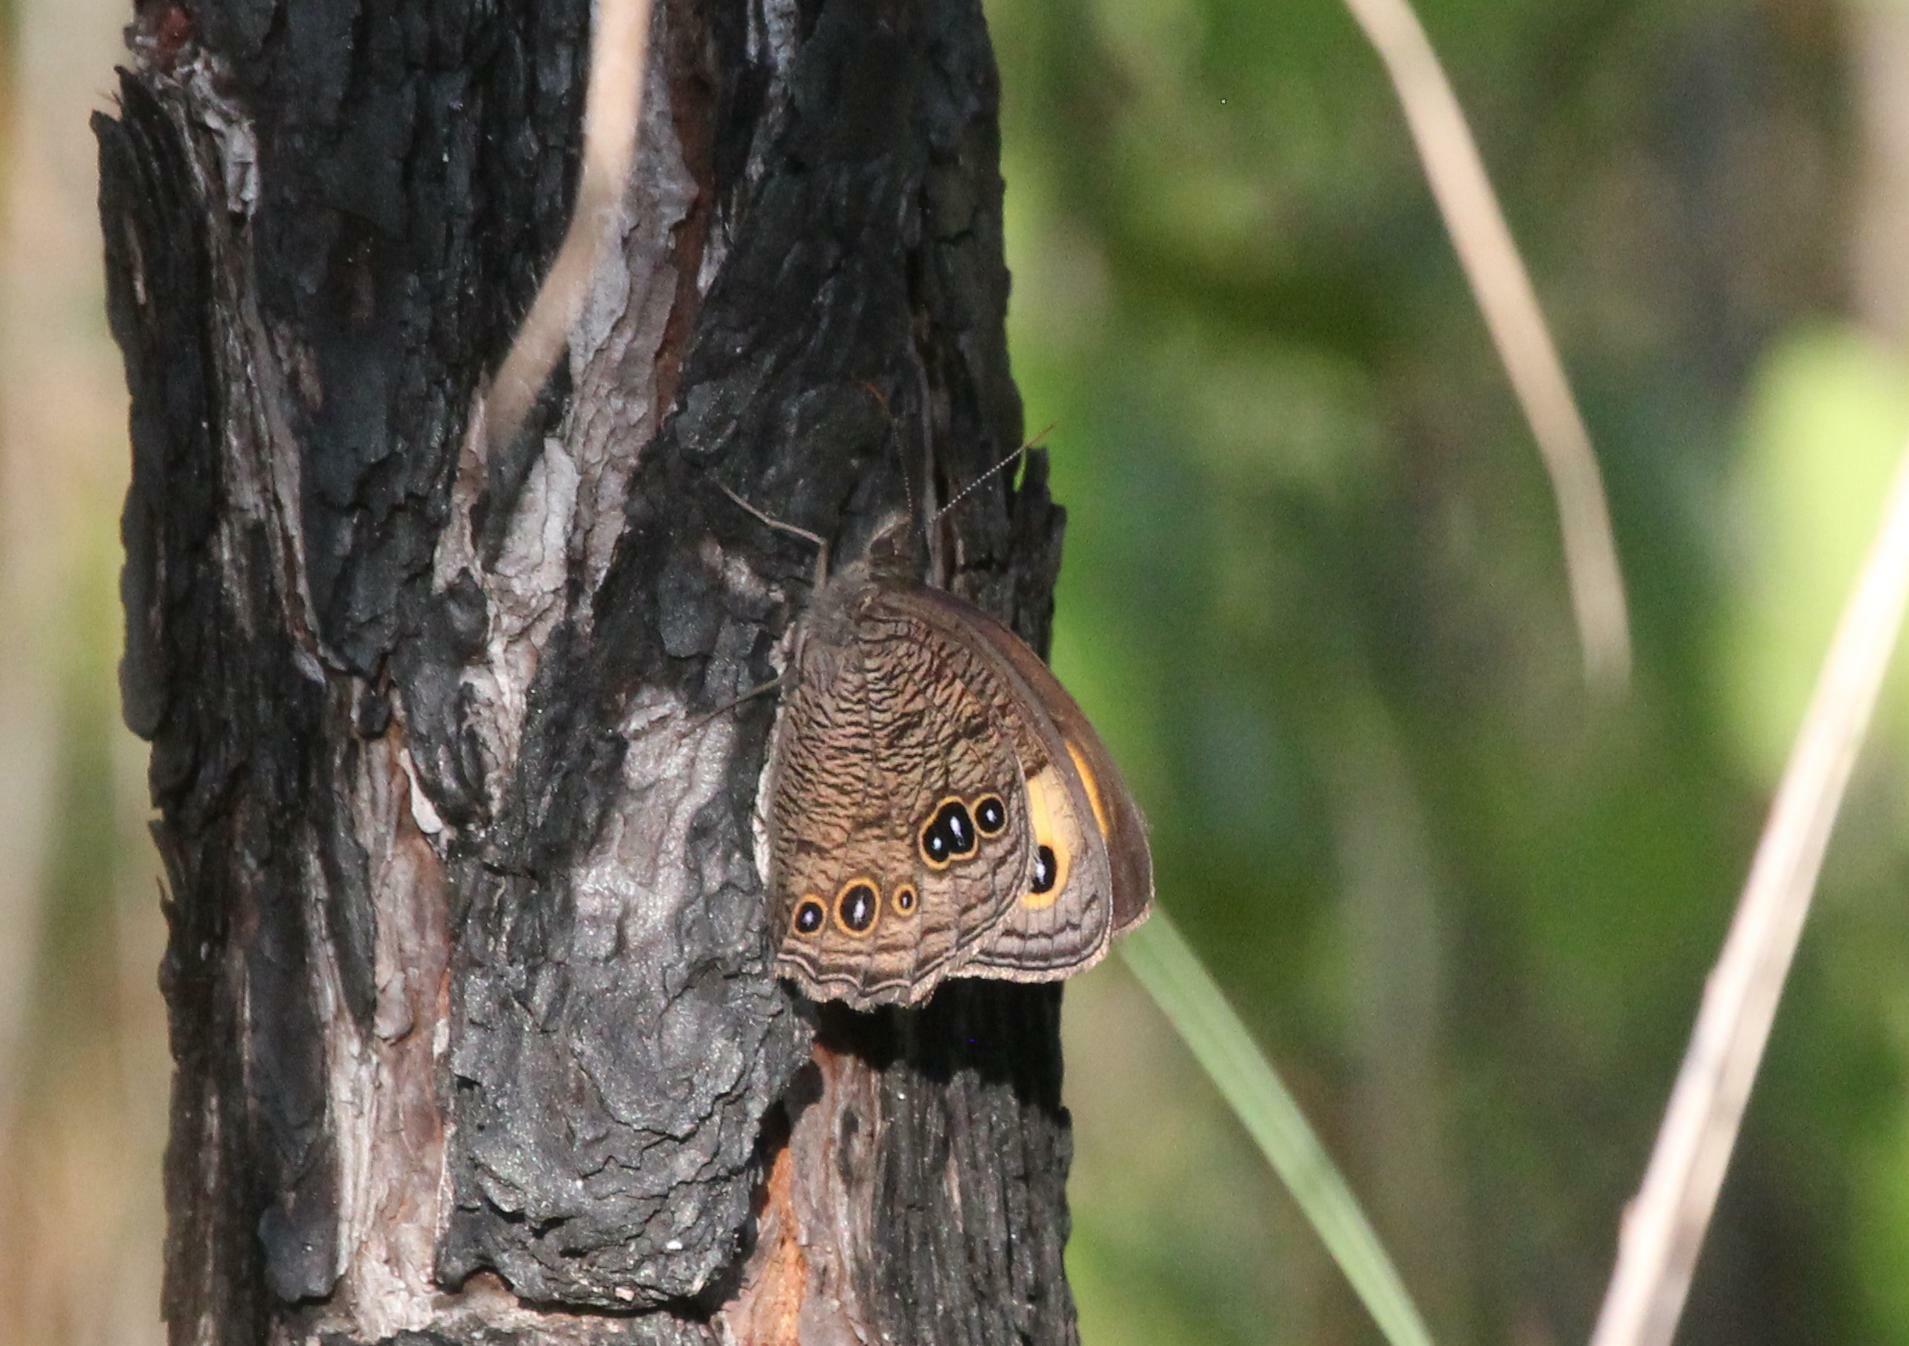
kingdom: Animalia
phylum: Arthropoda
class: Insecta
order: Lepidoptera
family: Nymphalidae
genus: Cercyonis
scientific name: Cercyonis pegala
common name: Common wood-nymph
